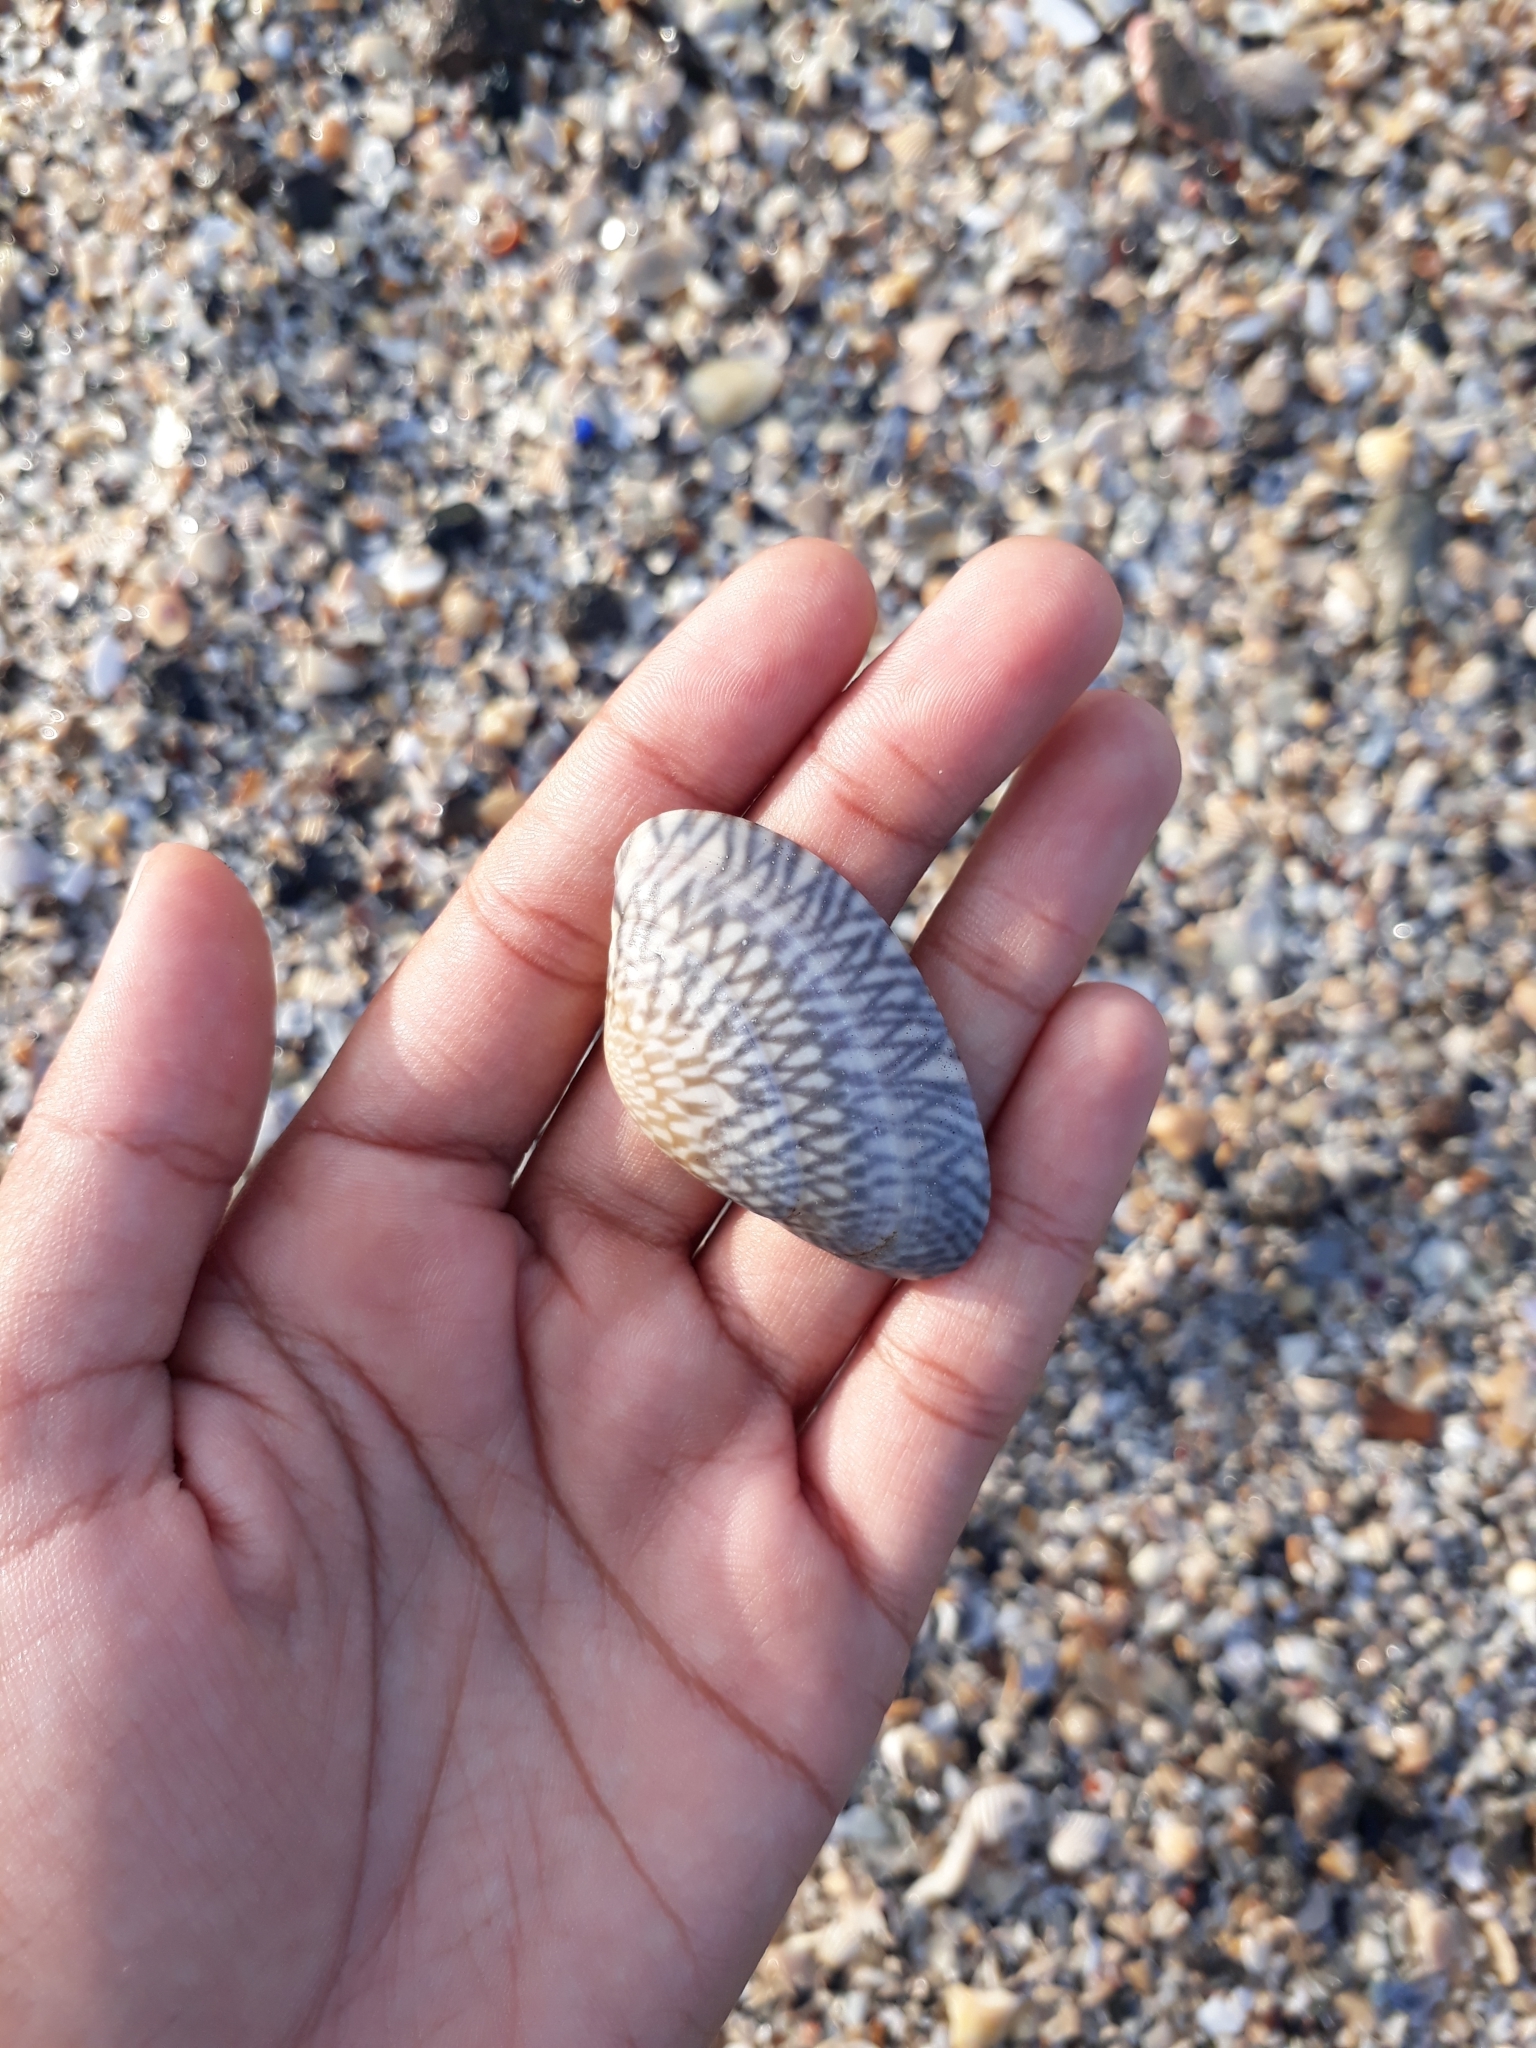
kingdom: Animalia
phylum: Mollusca
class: Bivalvia
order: Venerida
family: Veneridae
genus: Paratapes
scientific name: Paratapes textilis
